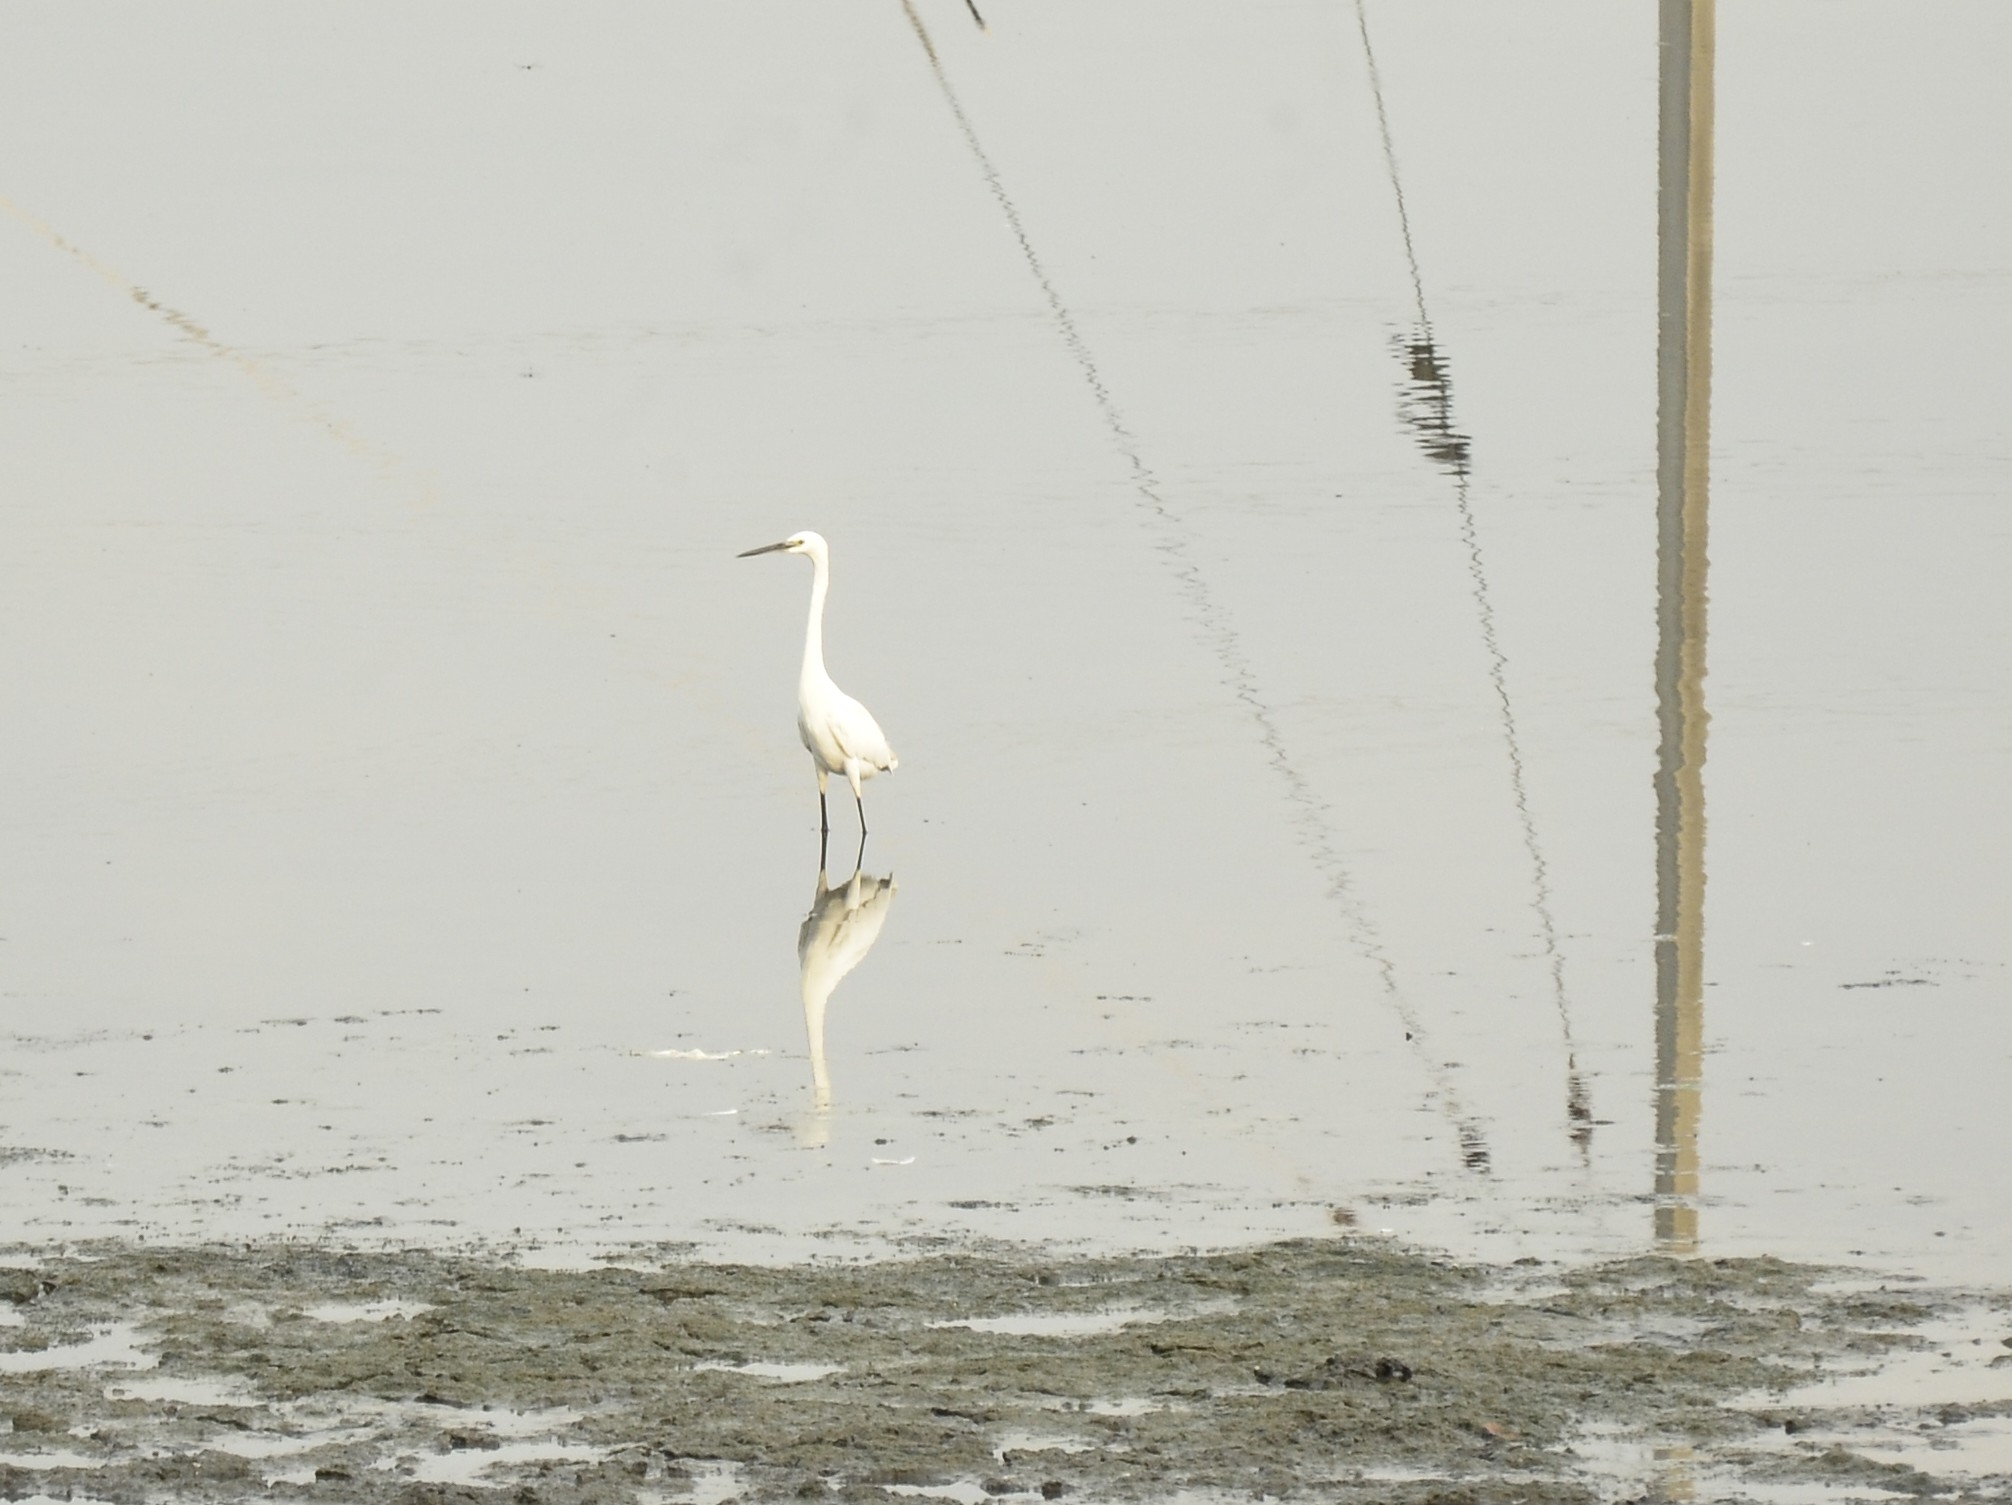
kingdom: Animalia
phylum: Chordata
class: Aves
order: Pelecaniformes
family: Ardeidae
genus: Egretta
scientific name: Egretta garzetta
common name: Little egret
